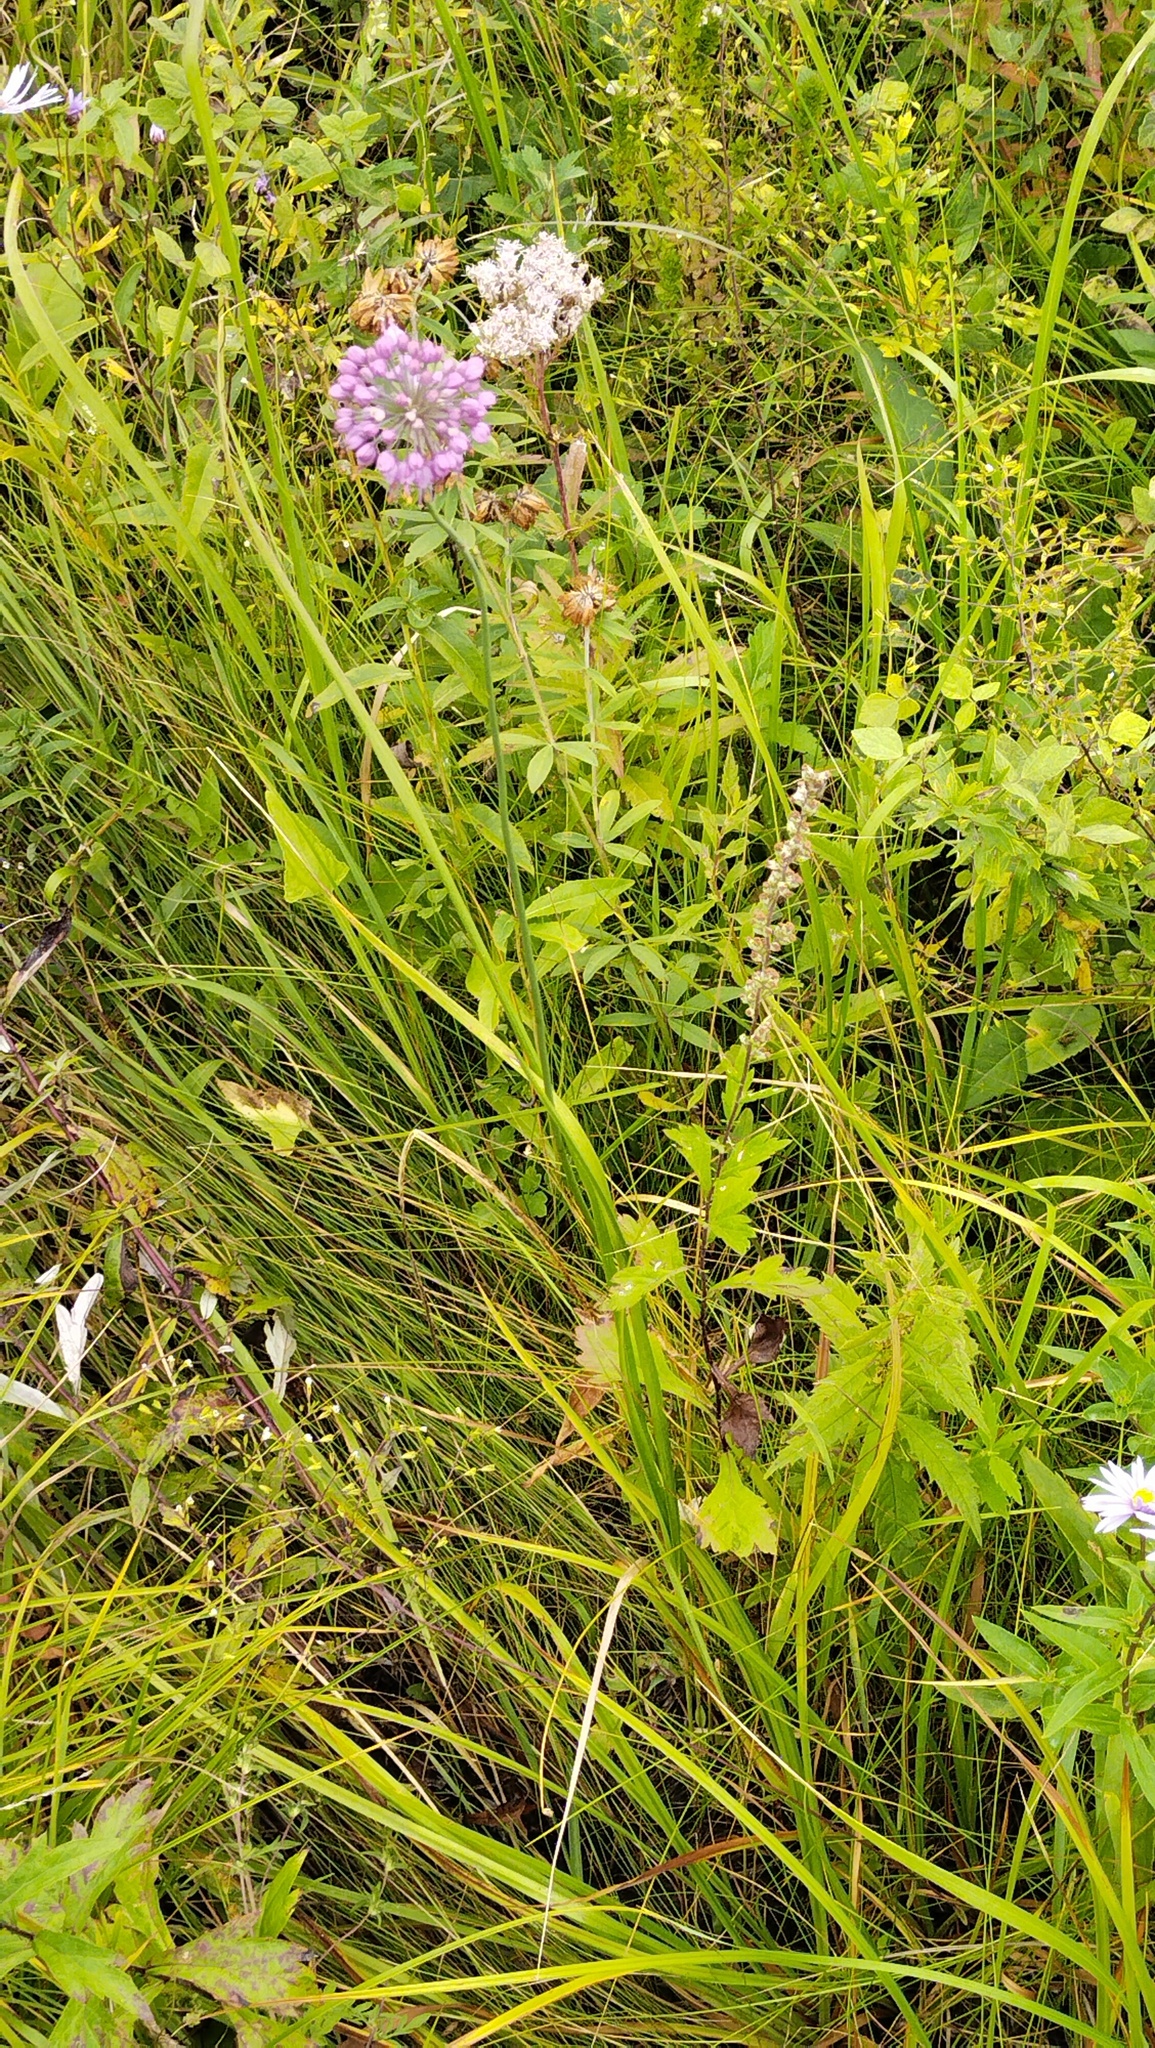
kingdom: Plantae
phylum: Tracheophyta
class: Liliopsida
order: Asparagales
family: Amaryllidaceae
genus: Allium
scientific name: Allium sacculiferum
